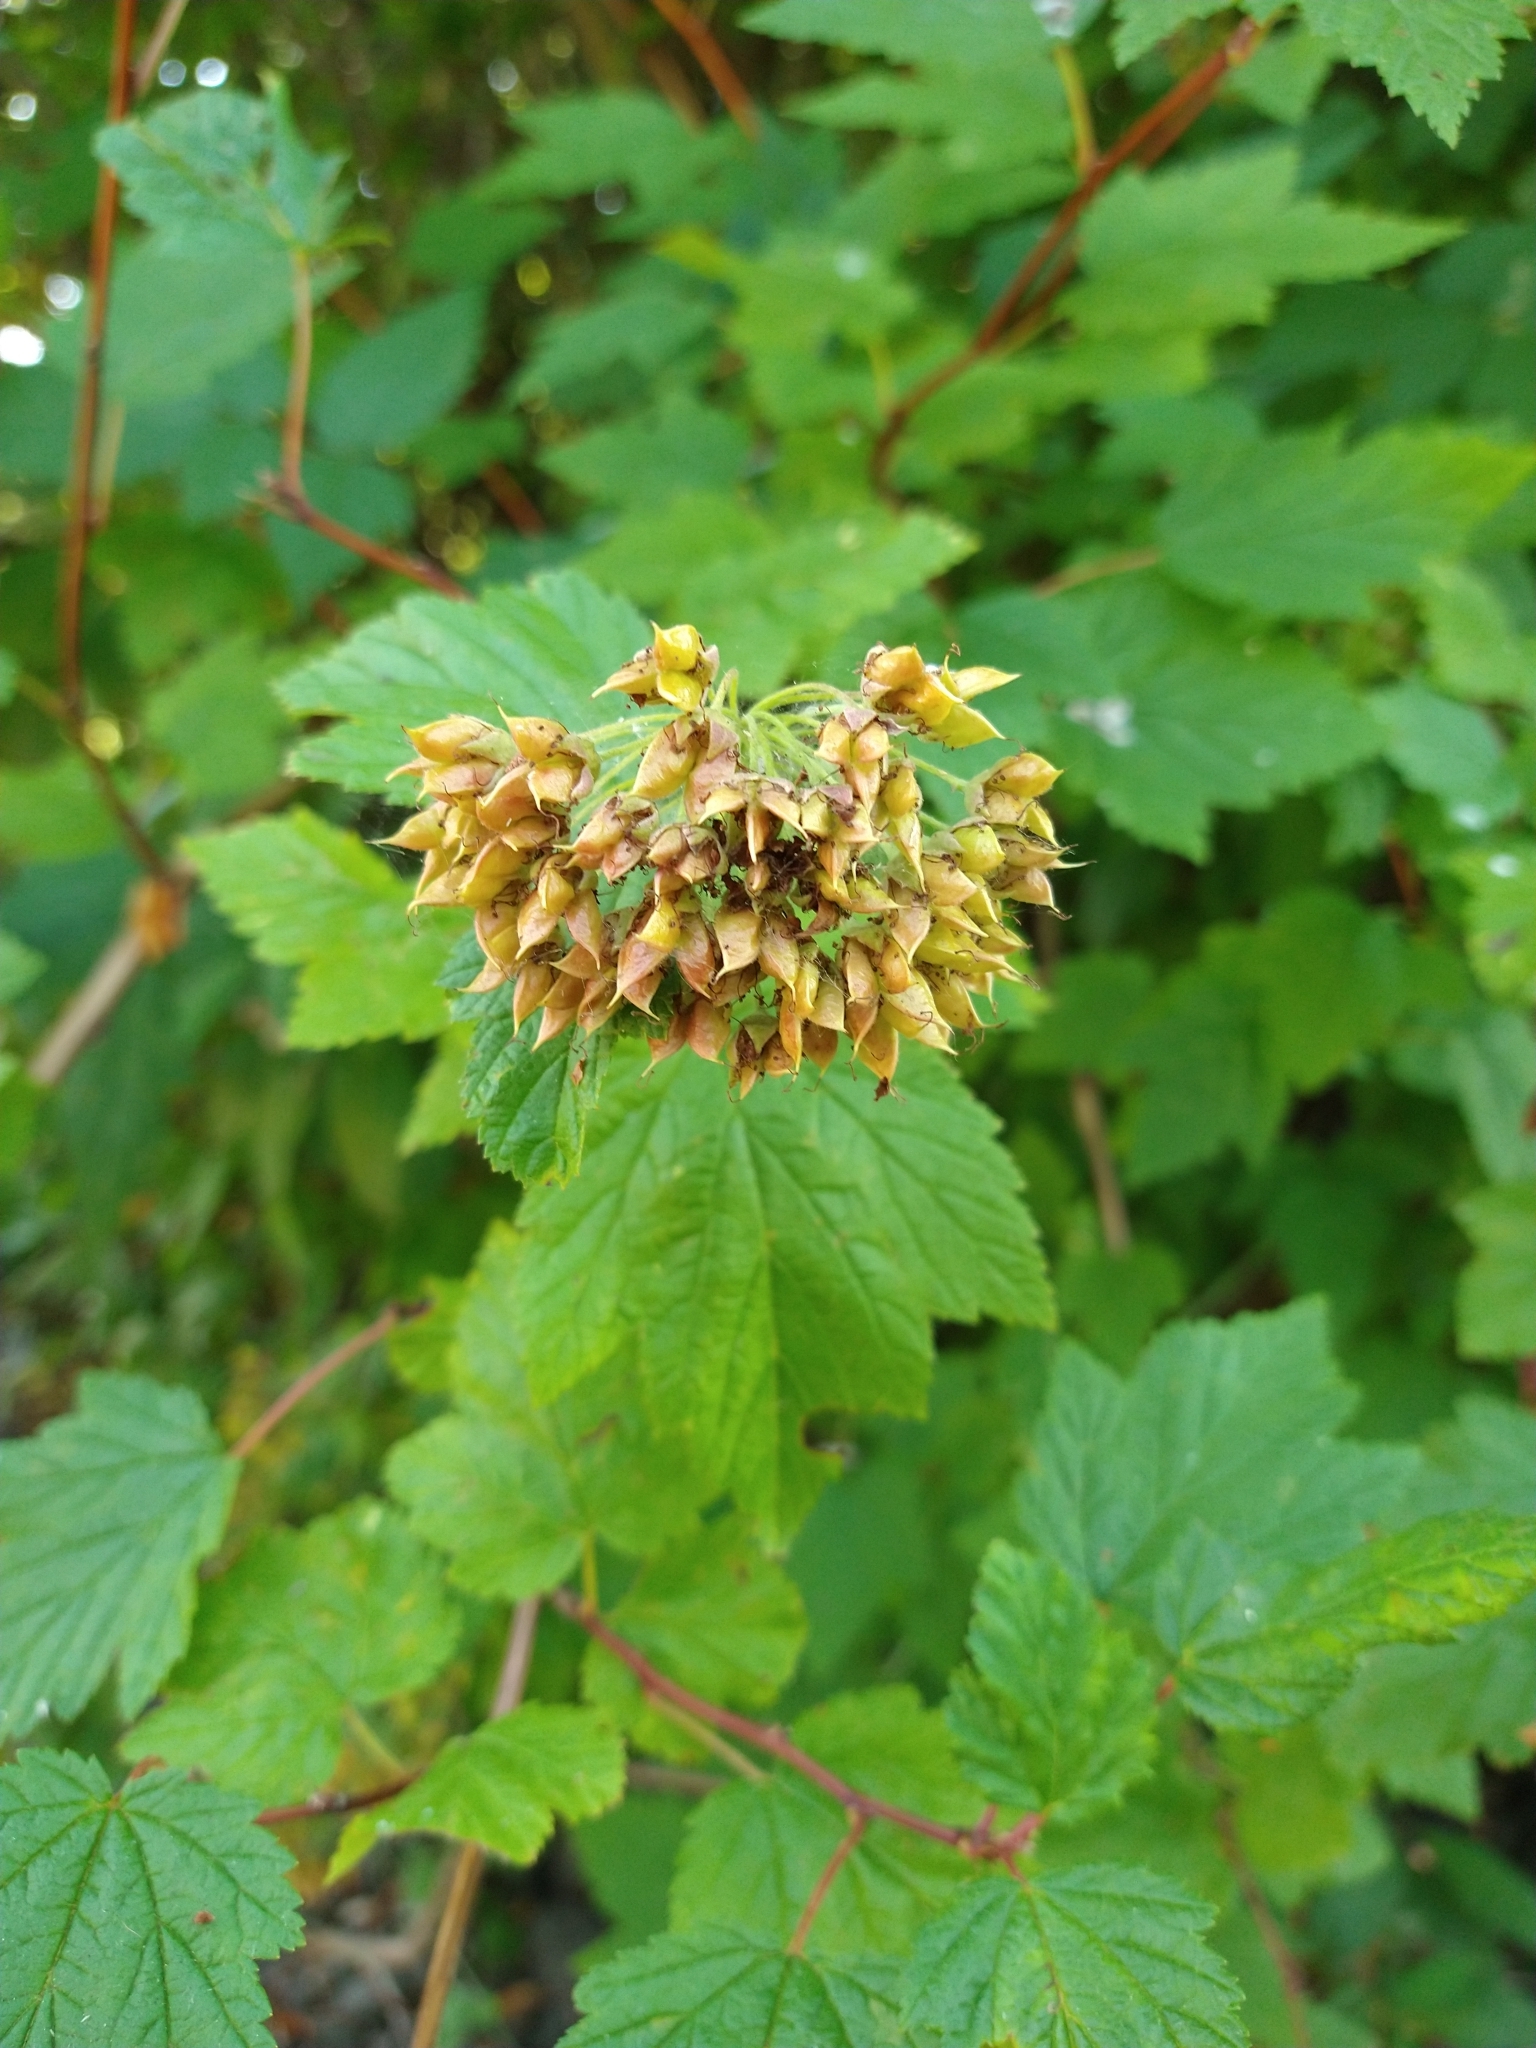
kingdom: Plantae
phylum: Tracheophyta
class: Magnoliopsida
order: Rosales
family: Rosaceae
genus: Physocarpus
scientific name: Physocarpus capitatus
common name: Pacific ninebark
